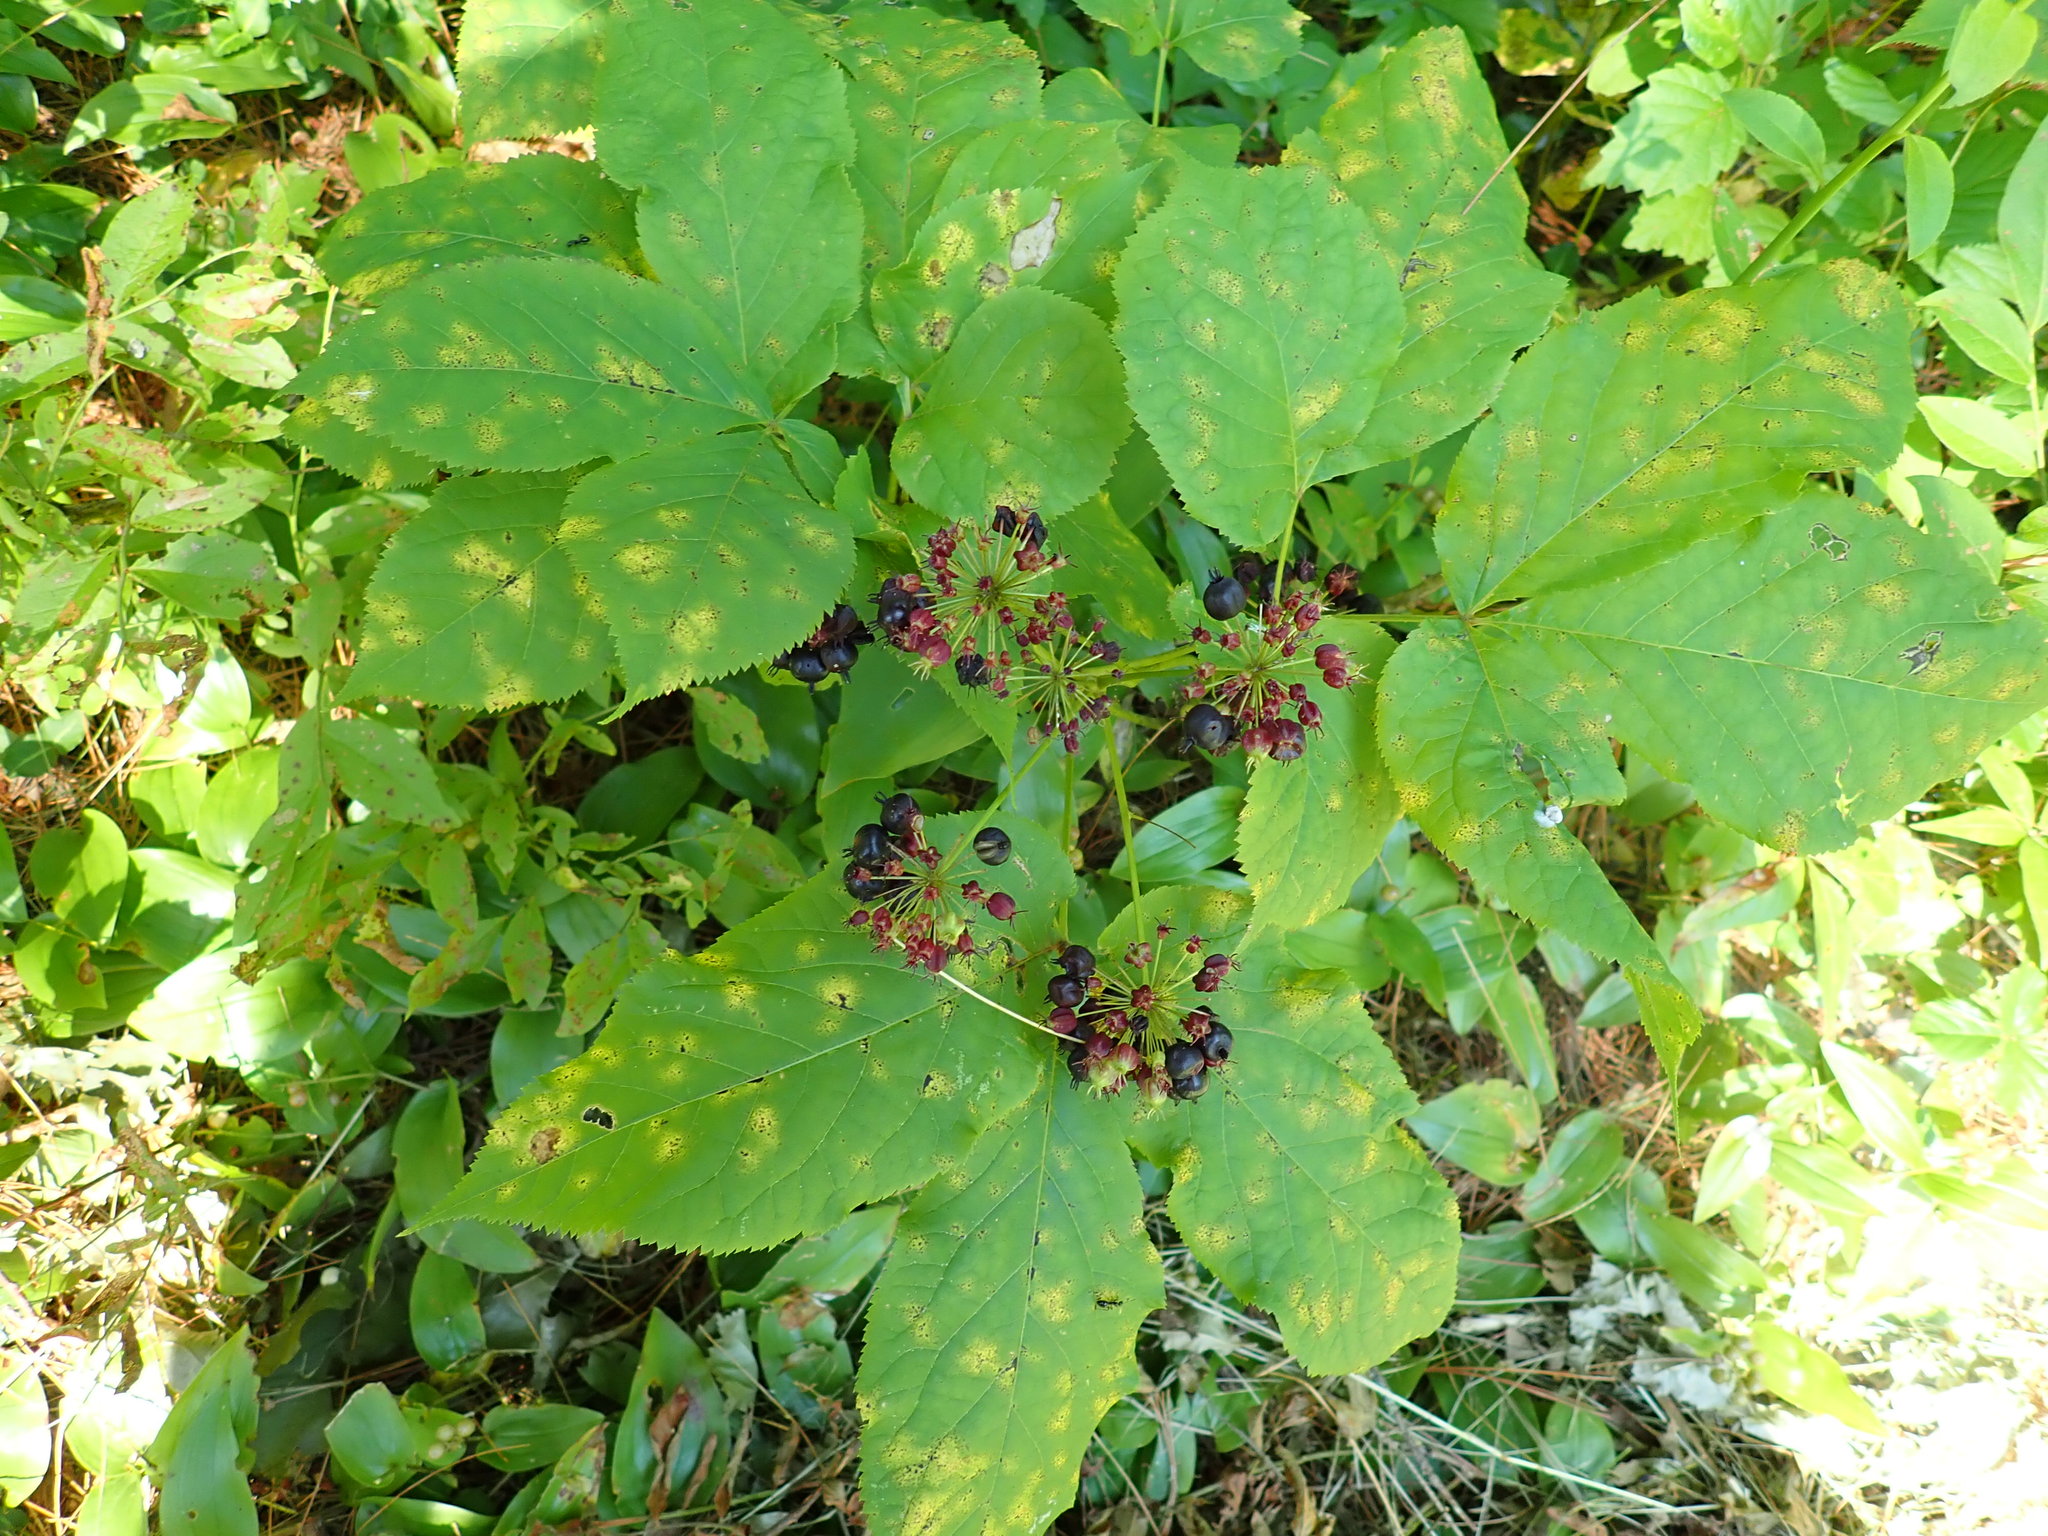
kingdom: Plantae
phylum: Tracheophyta
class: Magnoliopsida
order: Apiales
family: Araliaceae
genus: Aralia
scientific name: Aralia nudicaulis
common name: Wild sarsaparilla
